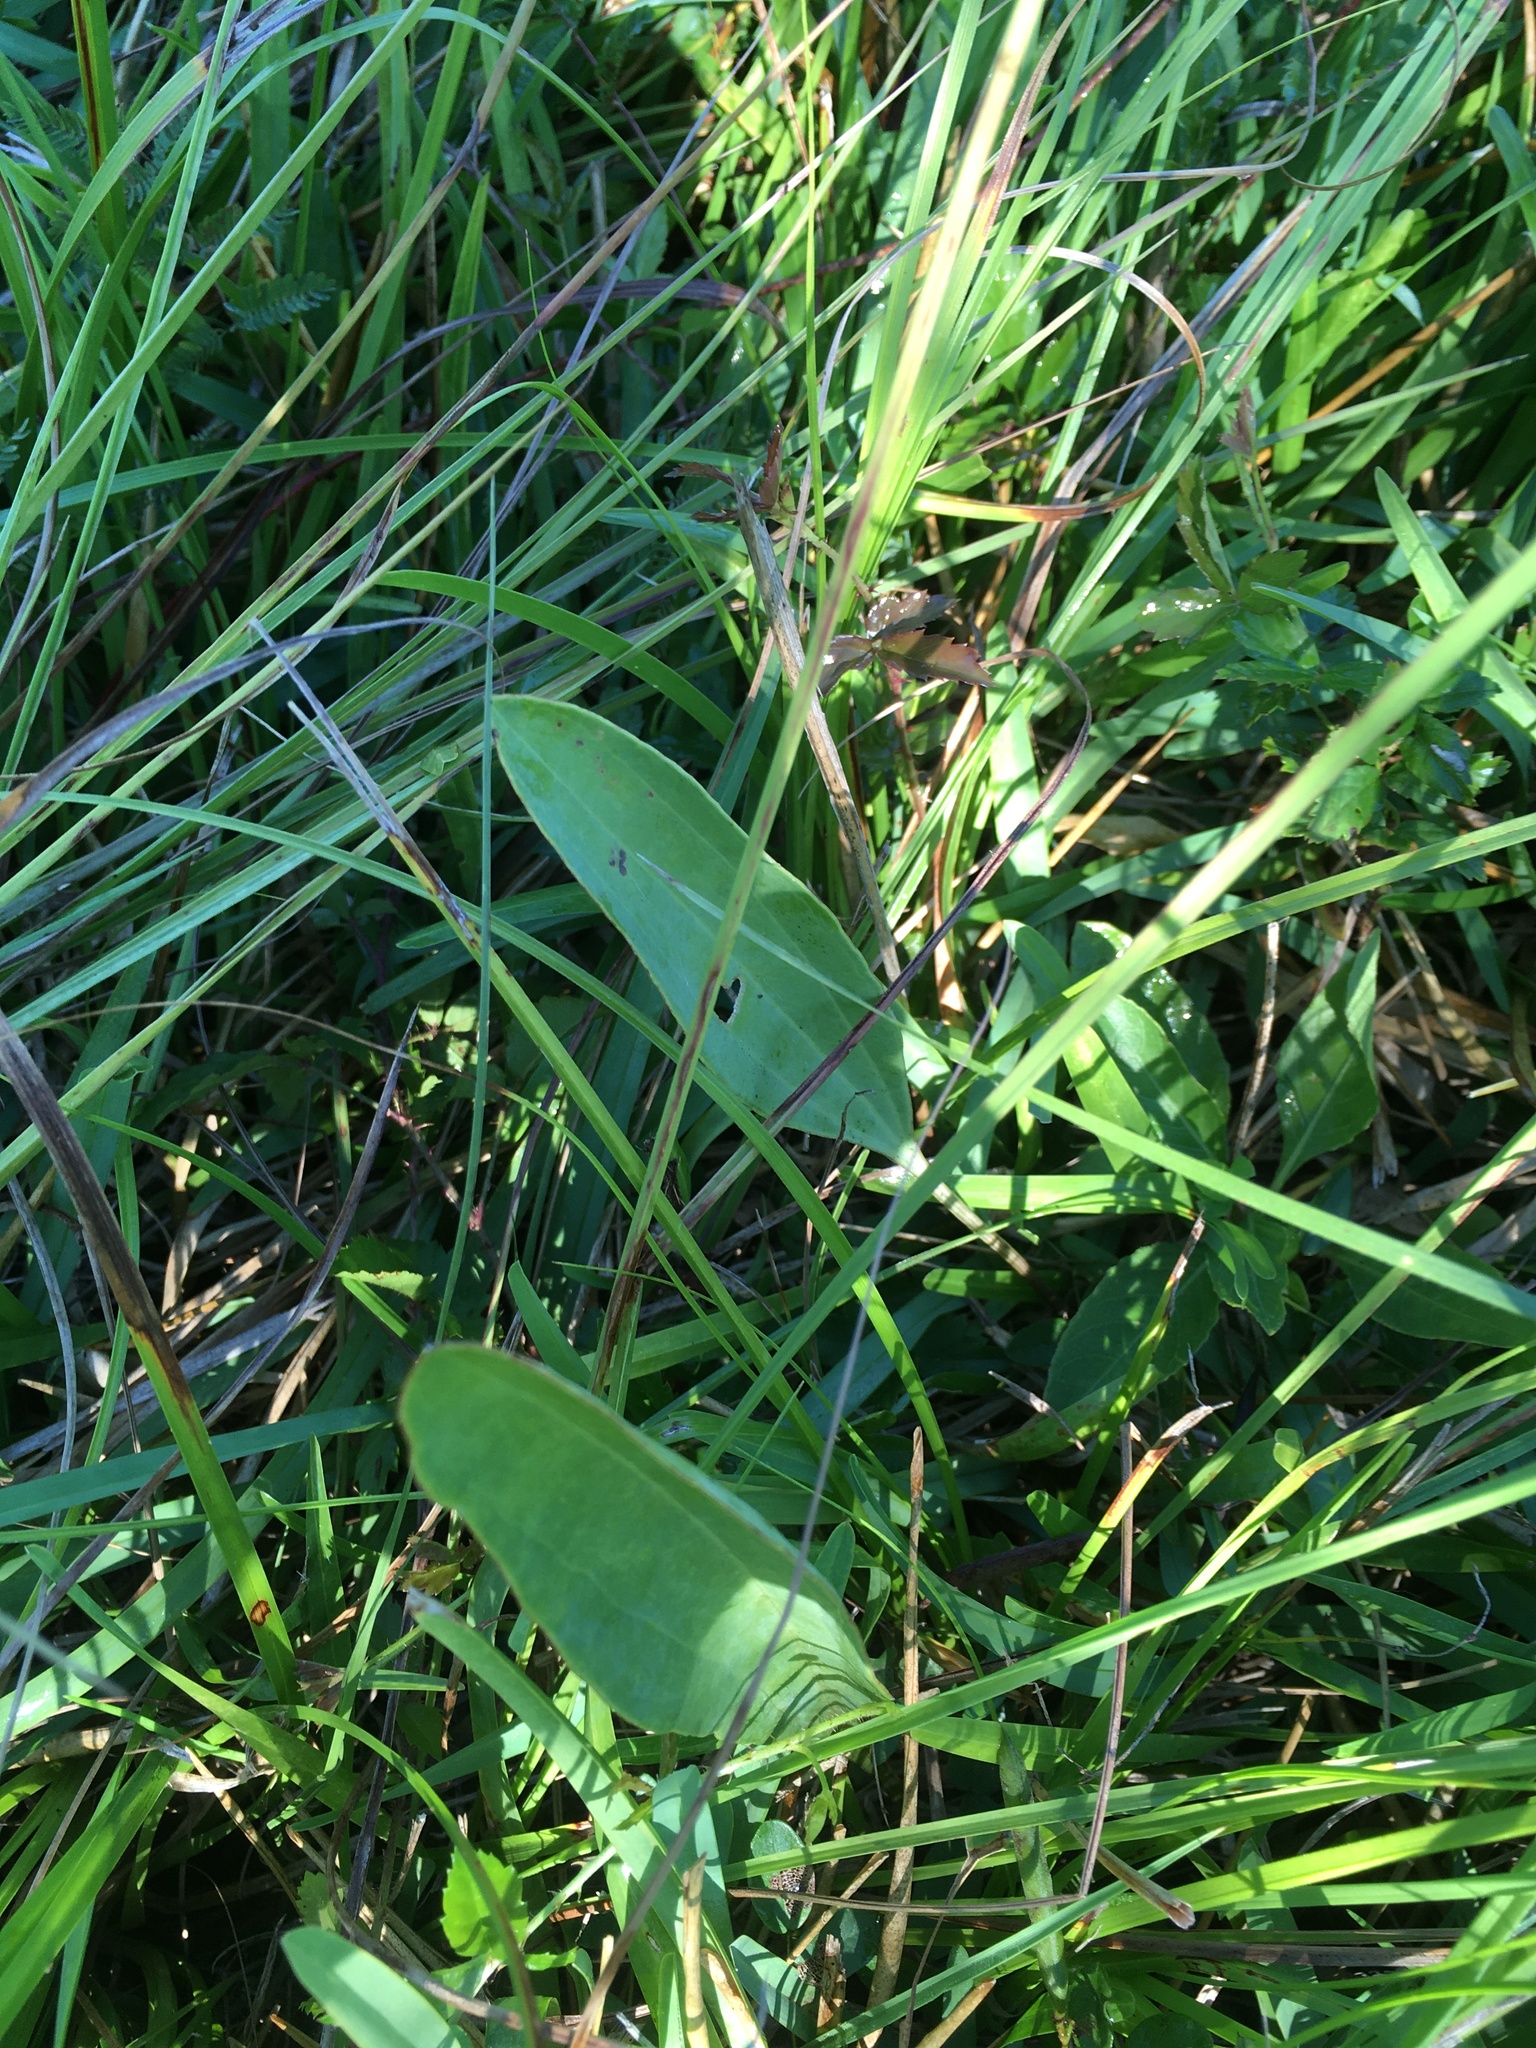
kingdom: Plantae
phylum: Tracheophyta
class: Magnoliopsida
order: Asterales
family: Asteraceae
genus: Arnoglossum
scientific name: Arnoglossum ovatum
